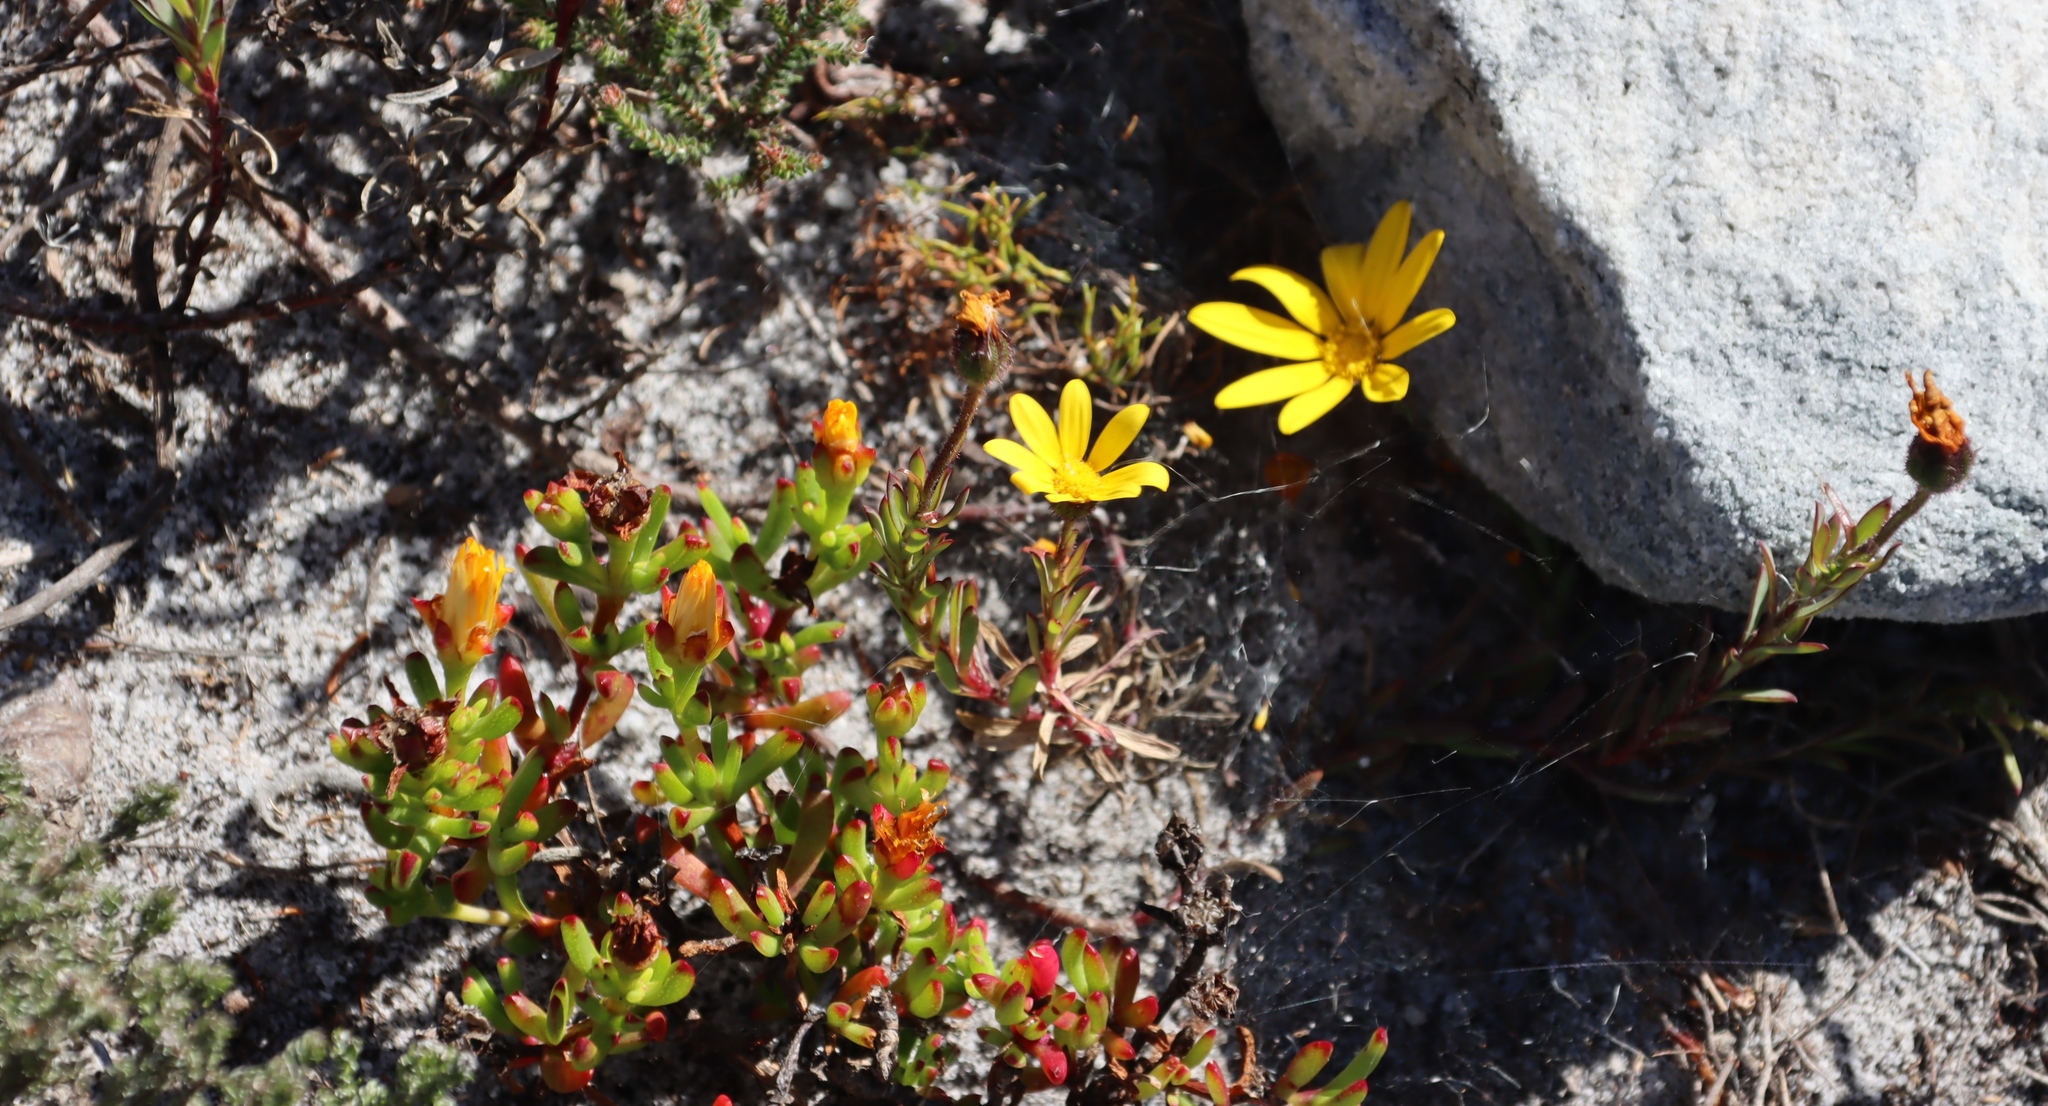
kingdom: Plantae
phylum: Tracheophyta
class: Magnoliopsida
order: Caryophyllales
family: Aizoaceae
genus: Lampranthus
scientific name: Lampranthus promontorii
